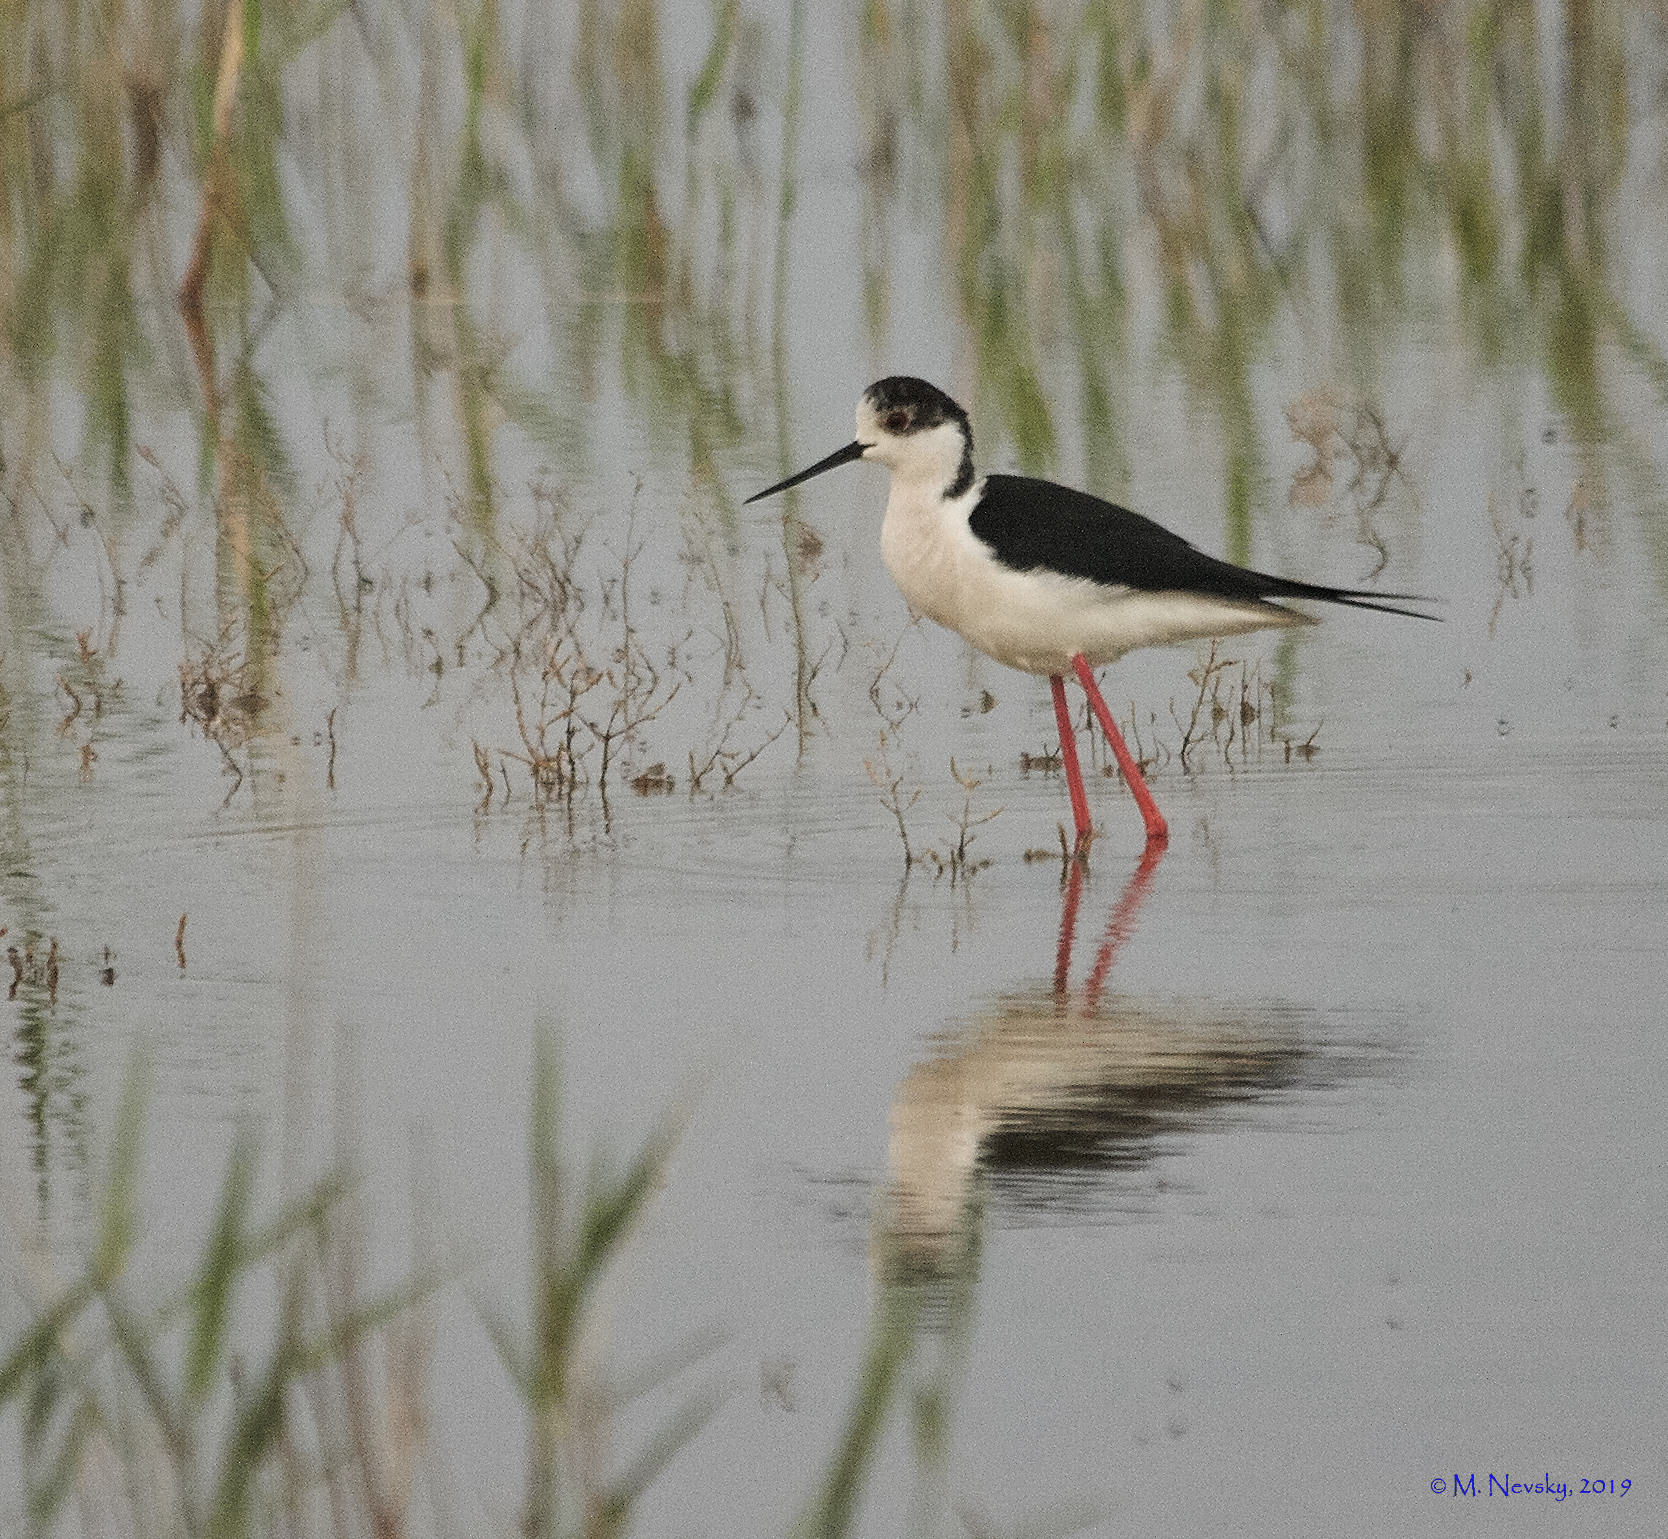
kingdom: Animalia
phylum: Chordata
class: Aves
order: Charadriiformes
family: Recurvirostridae
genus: Himantopus
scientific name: Himantopus himantopus
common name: Black-winged stilt
